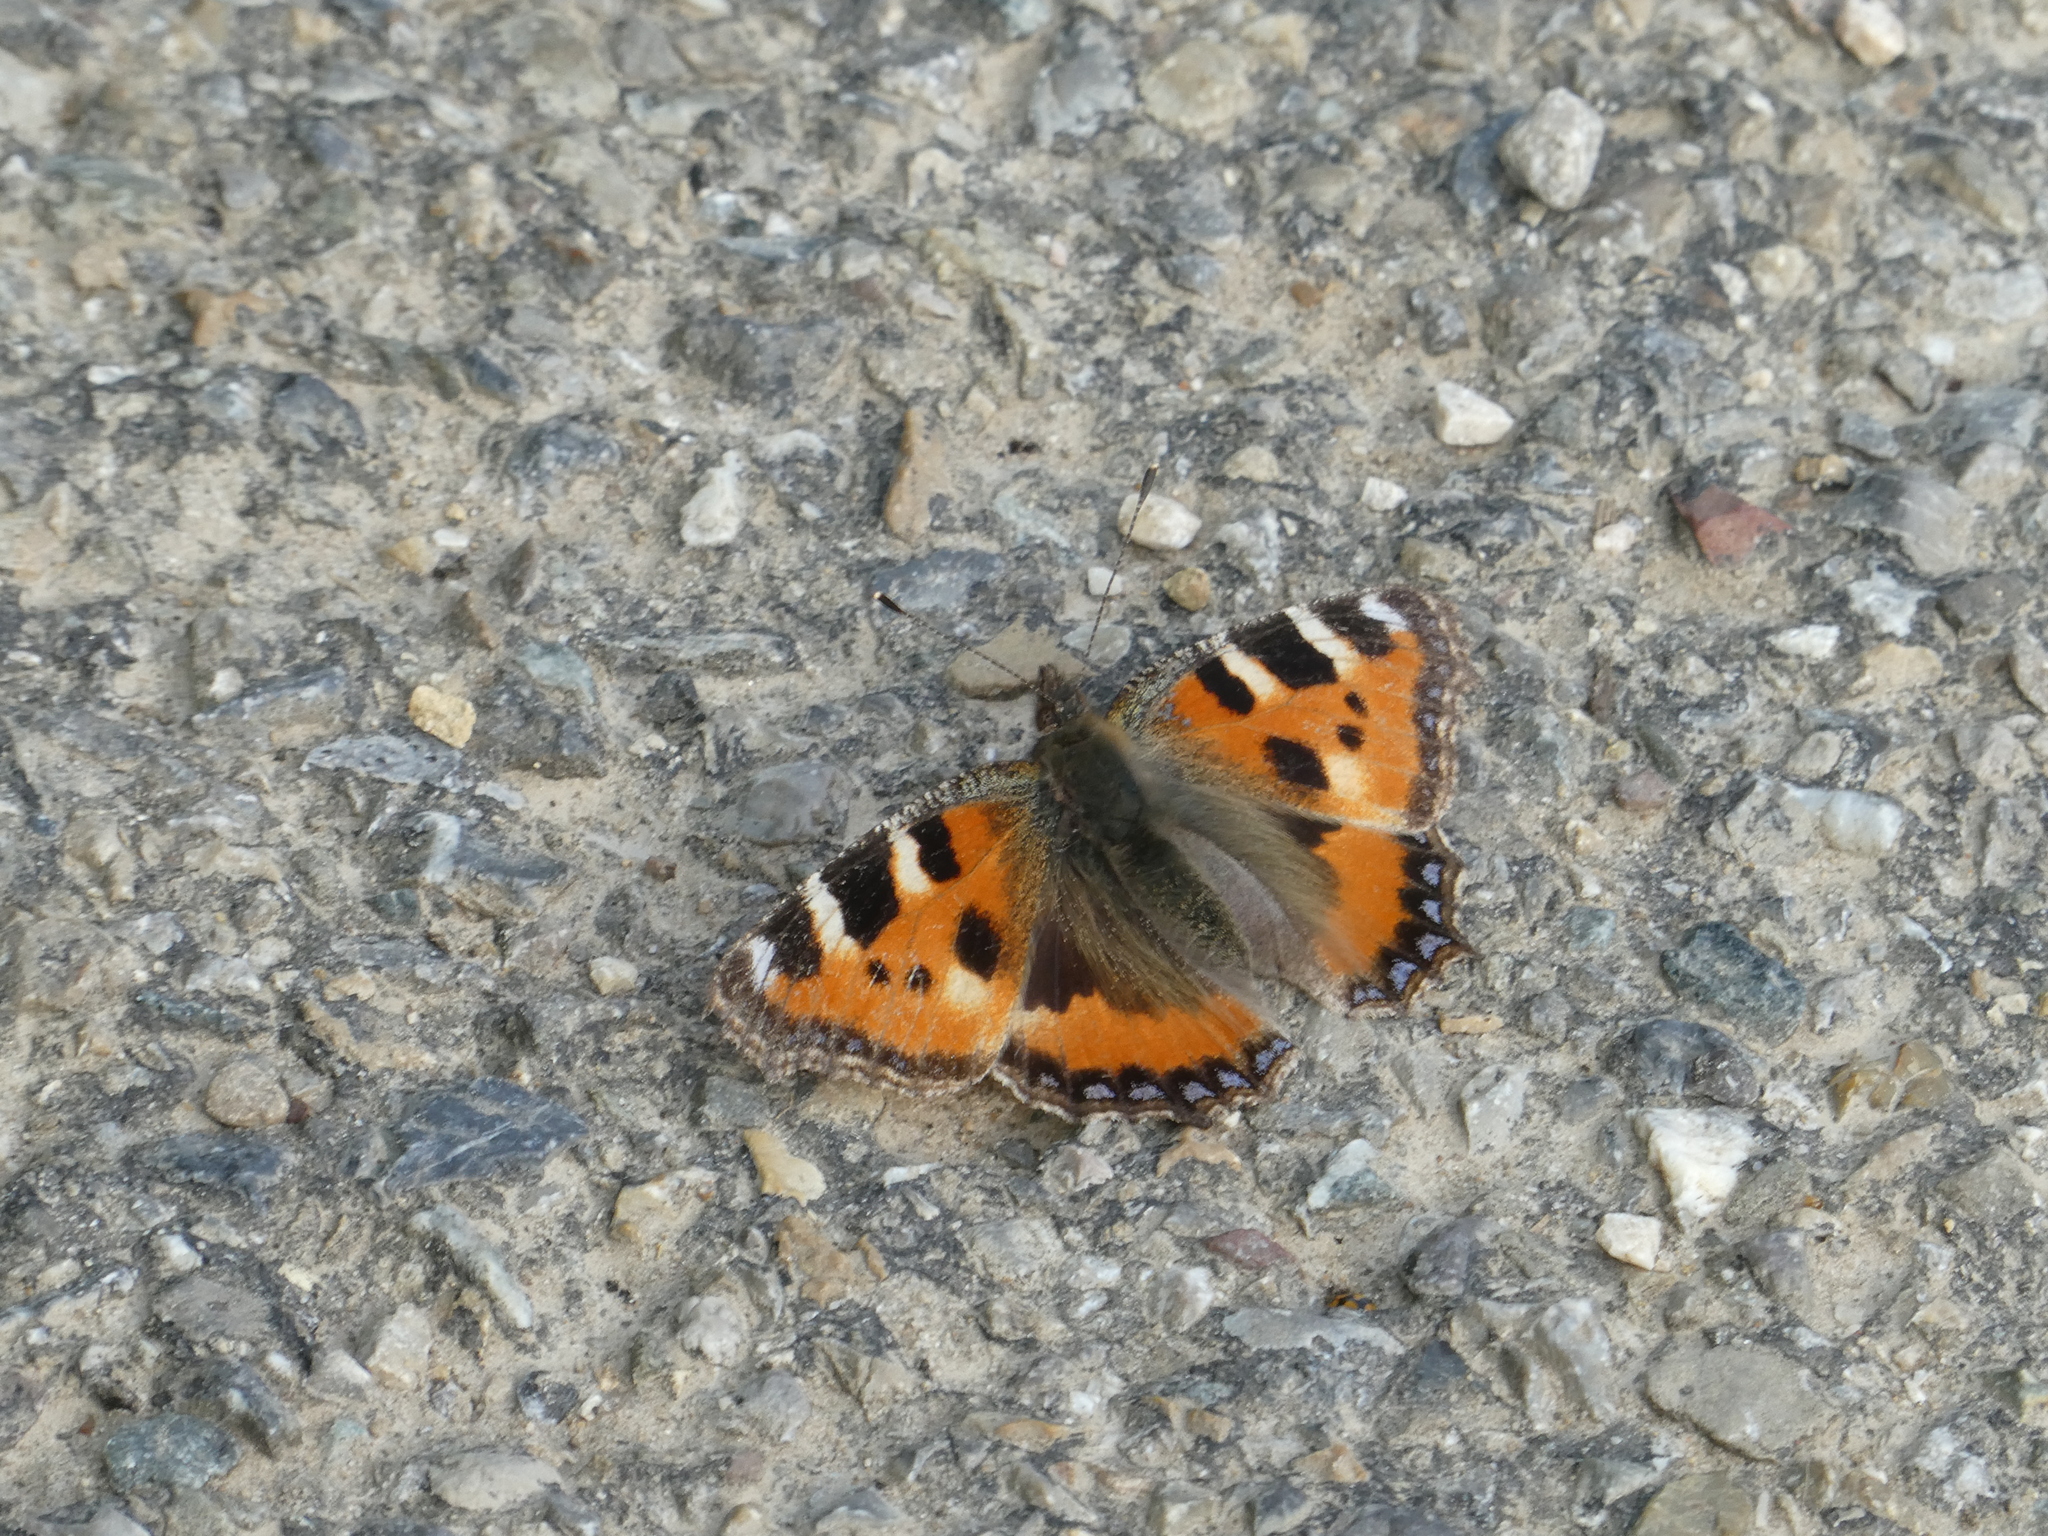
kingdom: Animalia
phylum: Arthropoda
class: Insecta
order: Lepidoptera
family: Nymphalidae
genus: Aglais
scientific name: Aglais urticae
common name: Small tortoiseshell
